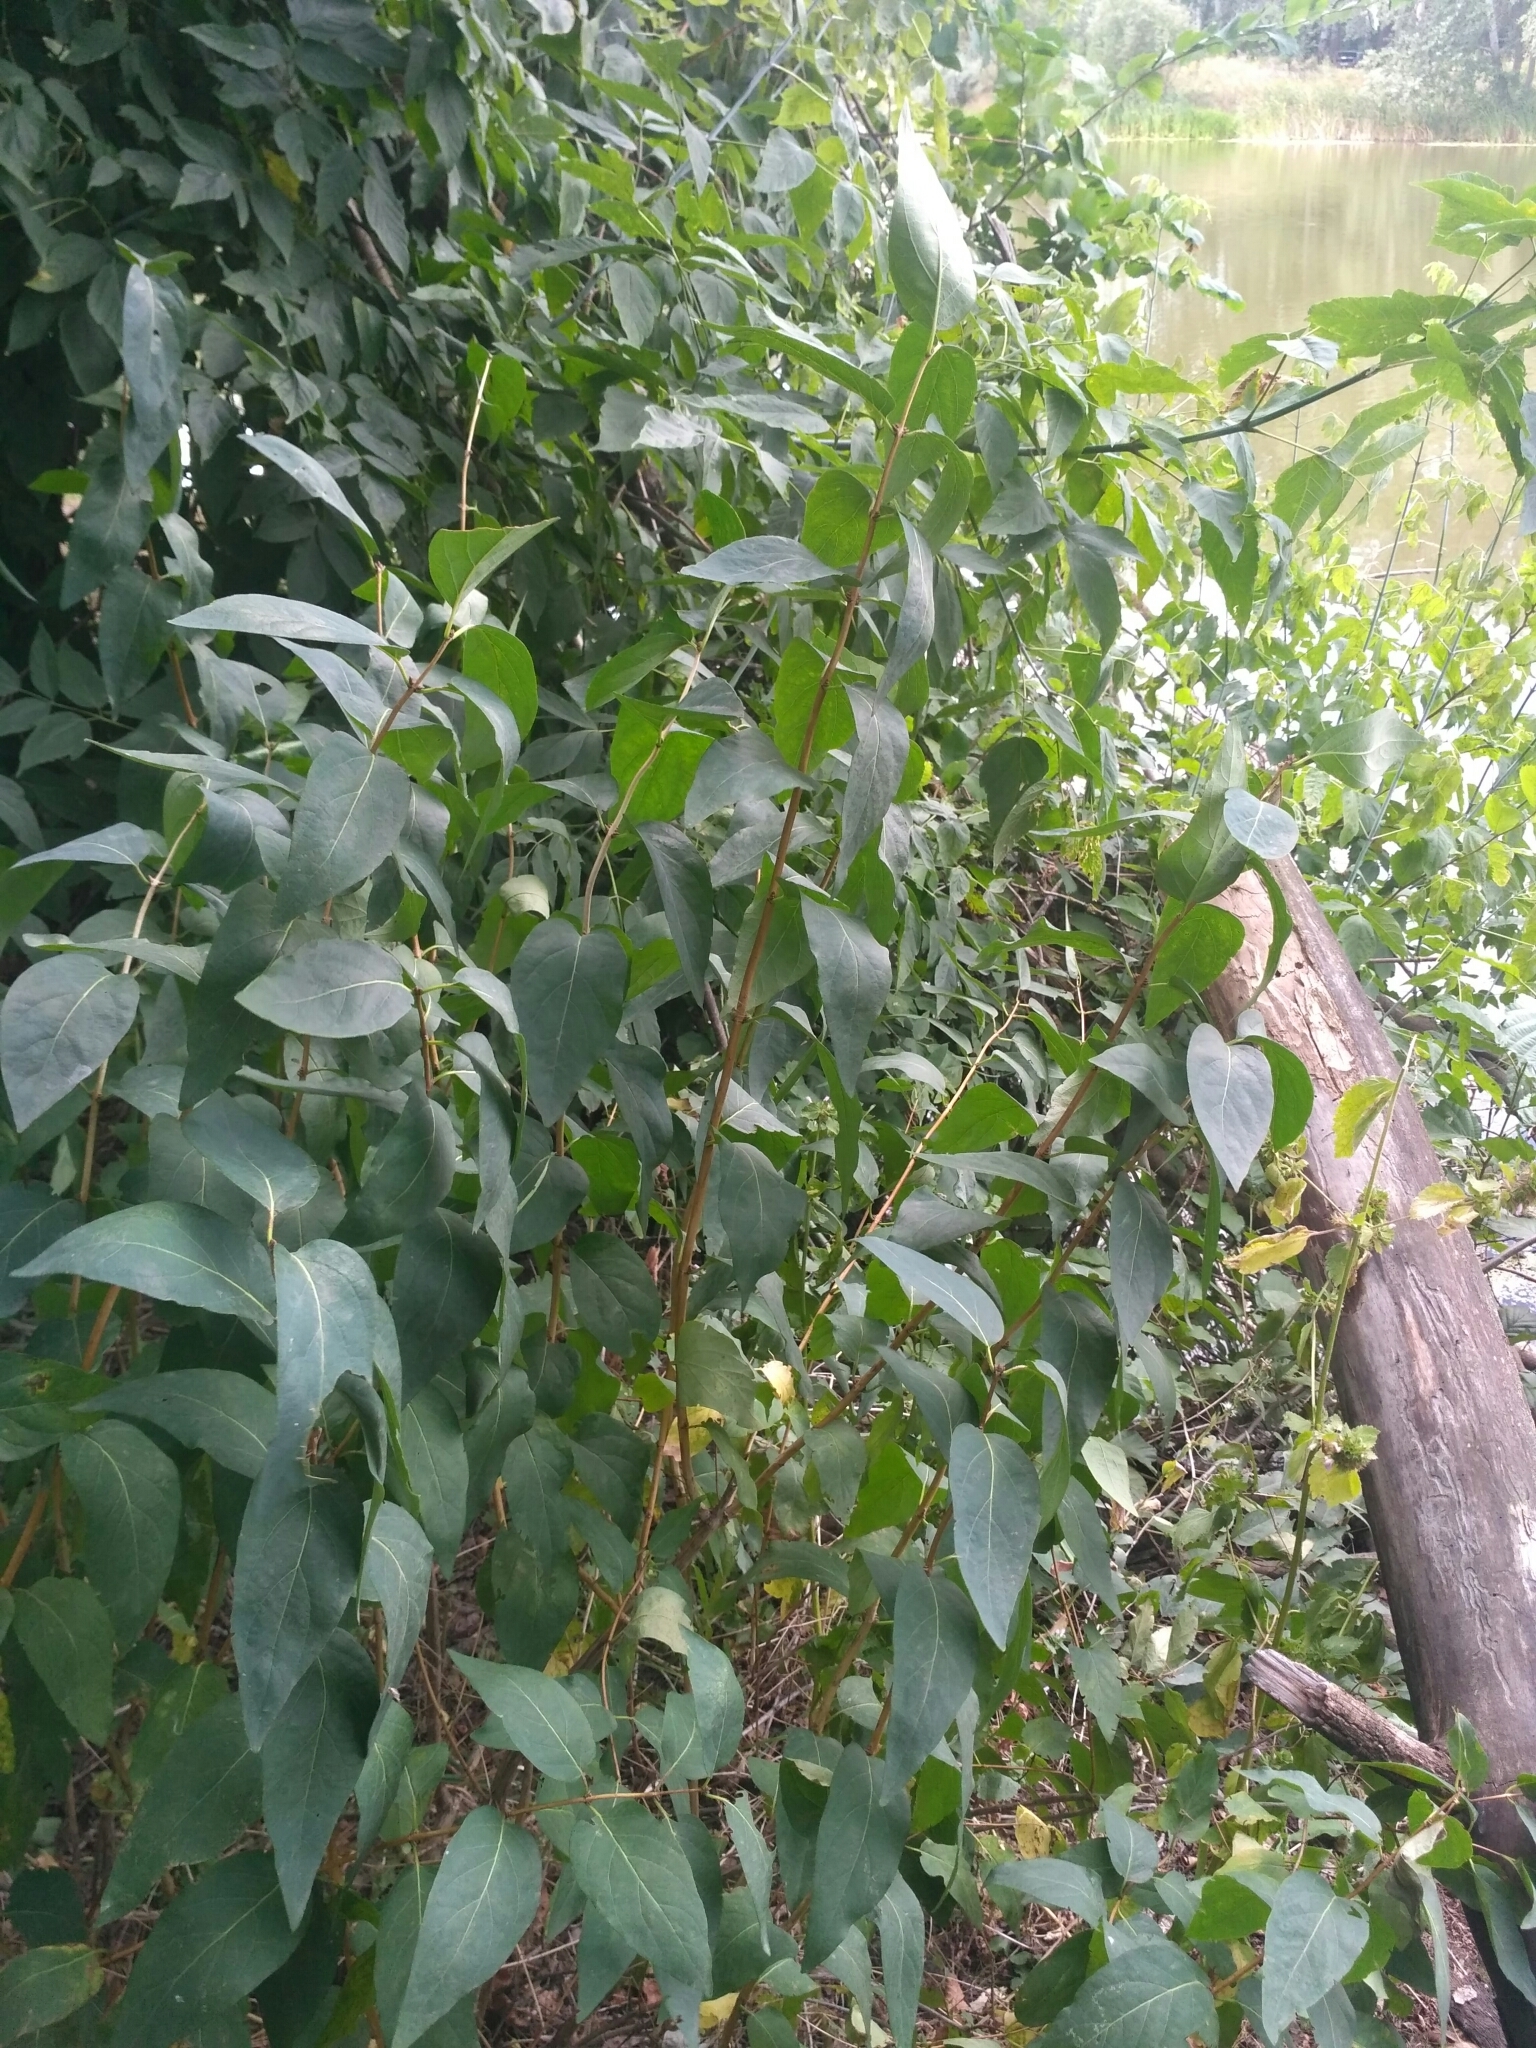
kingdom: Plantae
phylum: Tracheophyta
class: Magnoliopsida
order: Dipsacales
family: Caprifoliaceae
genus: Lonicera
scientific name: Lonicera tatarica
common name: Tatarian honeysuckle
